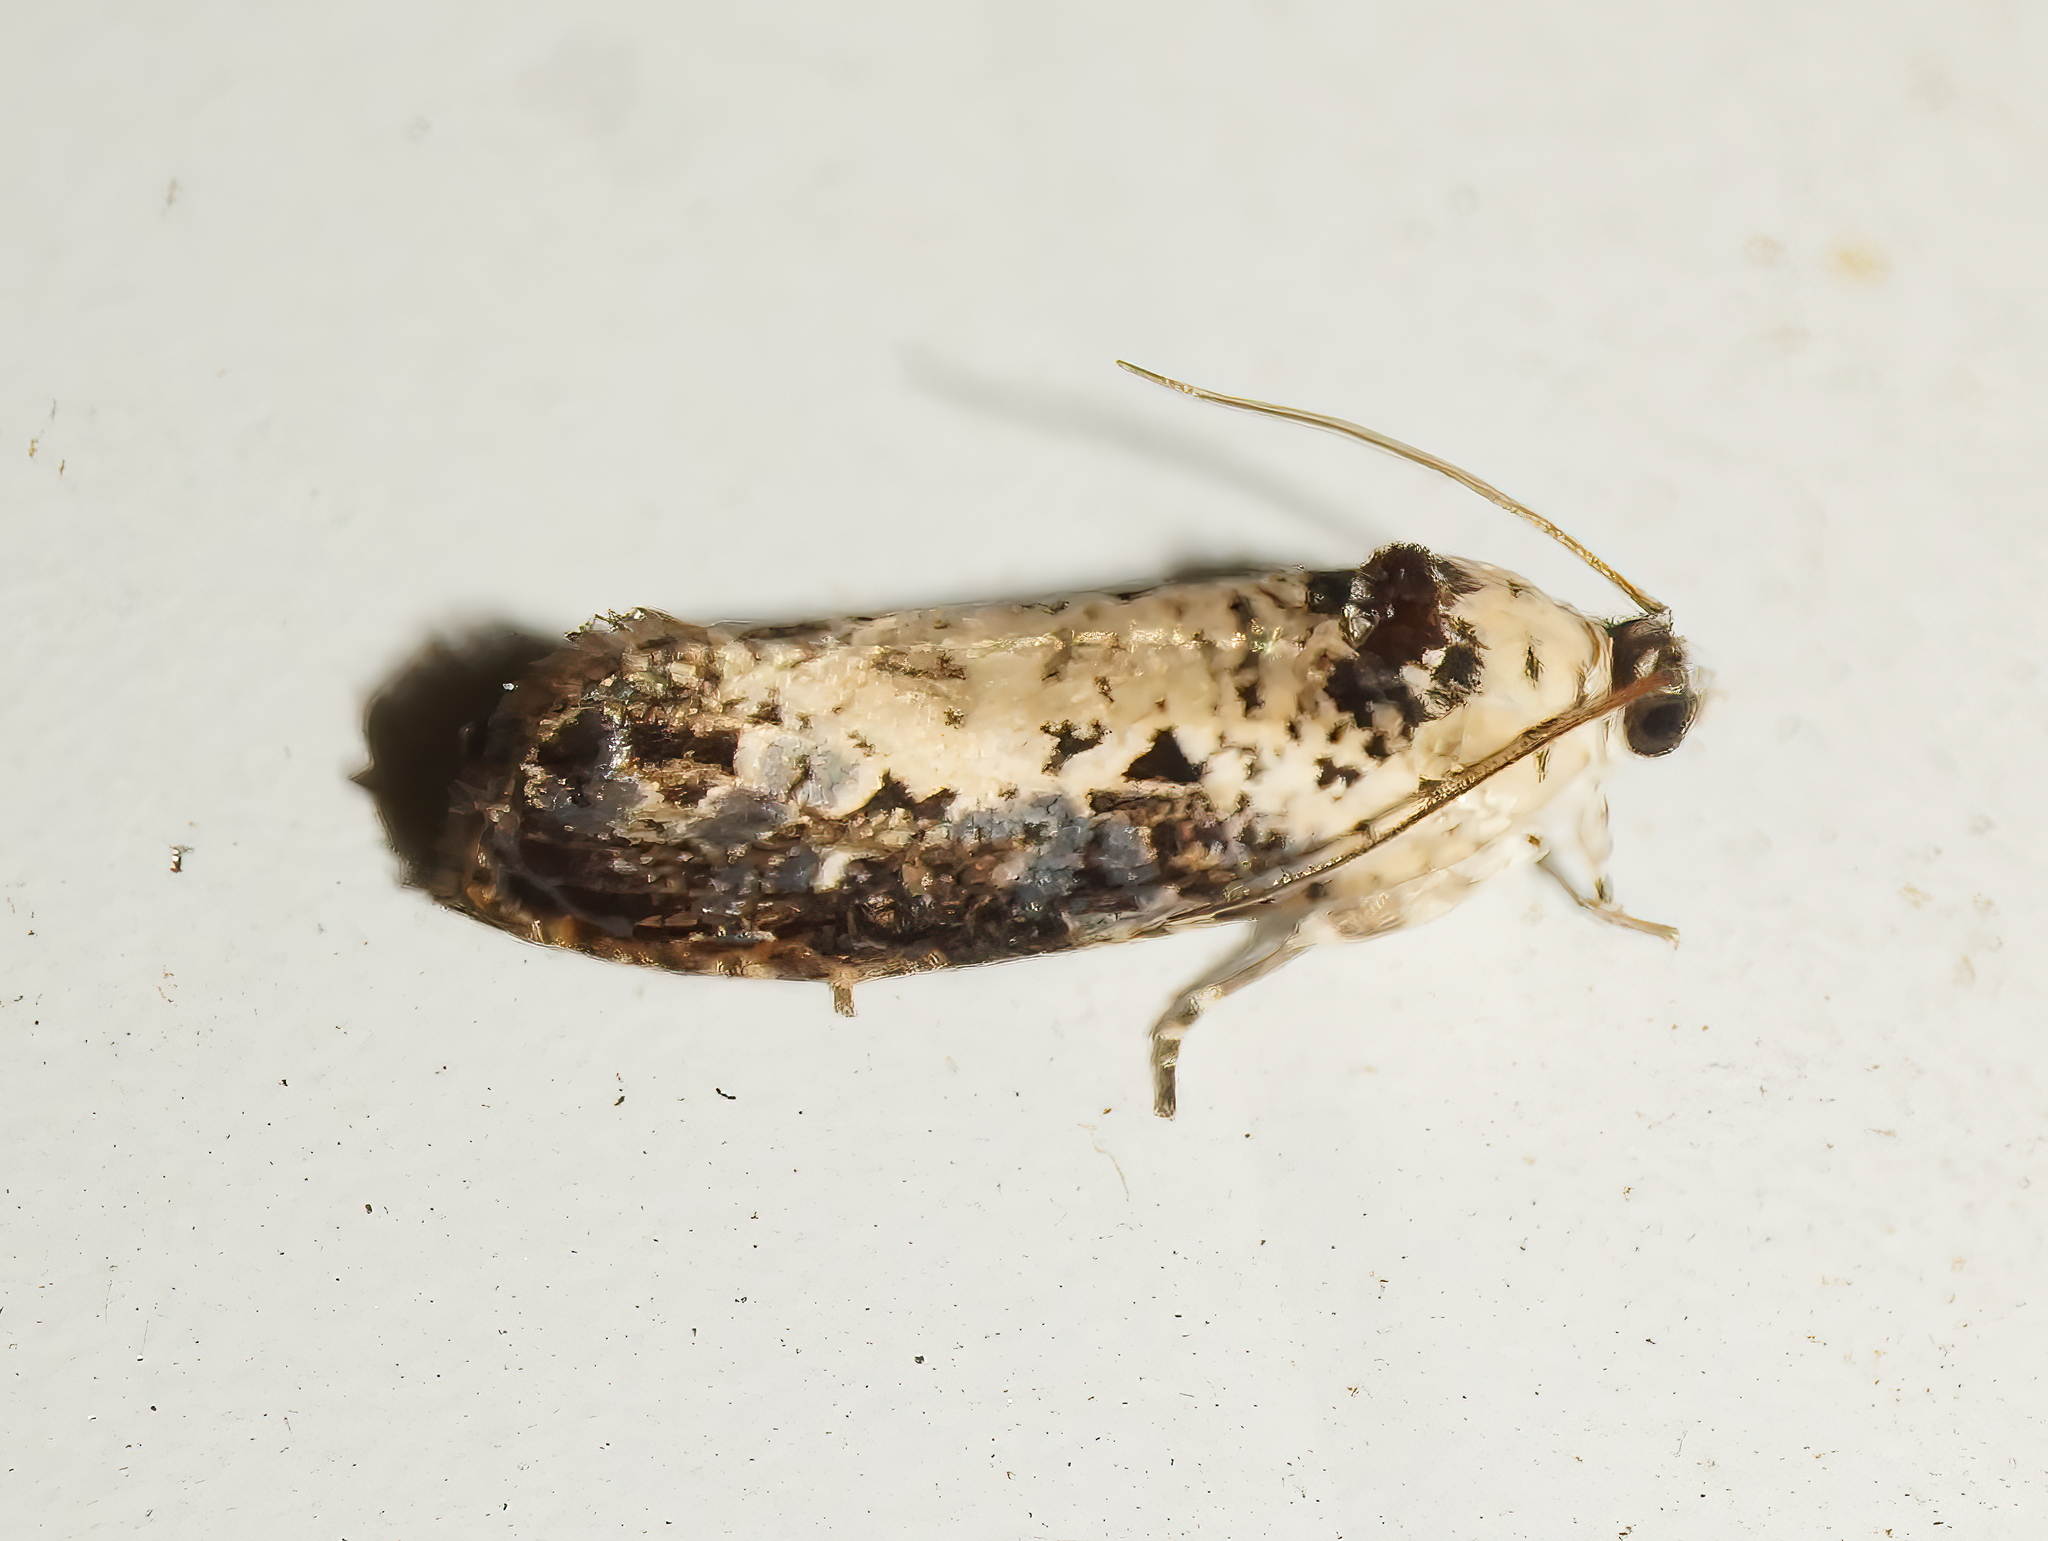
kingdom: Animalia
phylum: Arthropoda
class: Insecta
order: Lepidoptera
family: Tortricidae
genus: Hedya
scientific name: Hedya salicella
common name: Large tortricid moth
